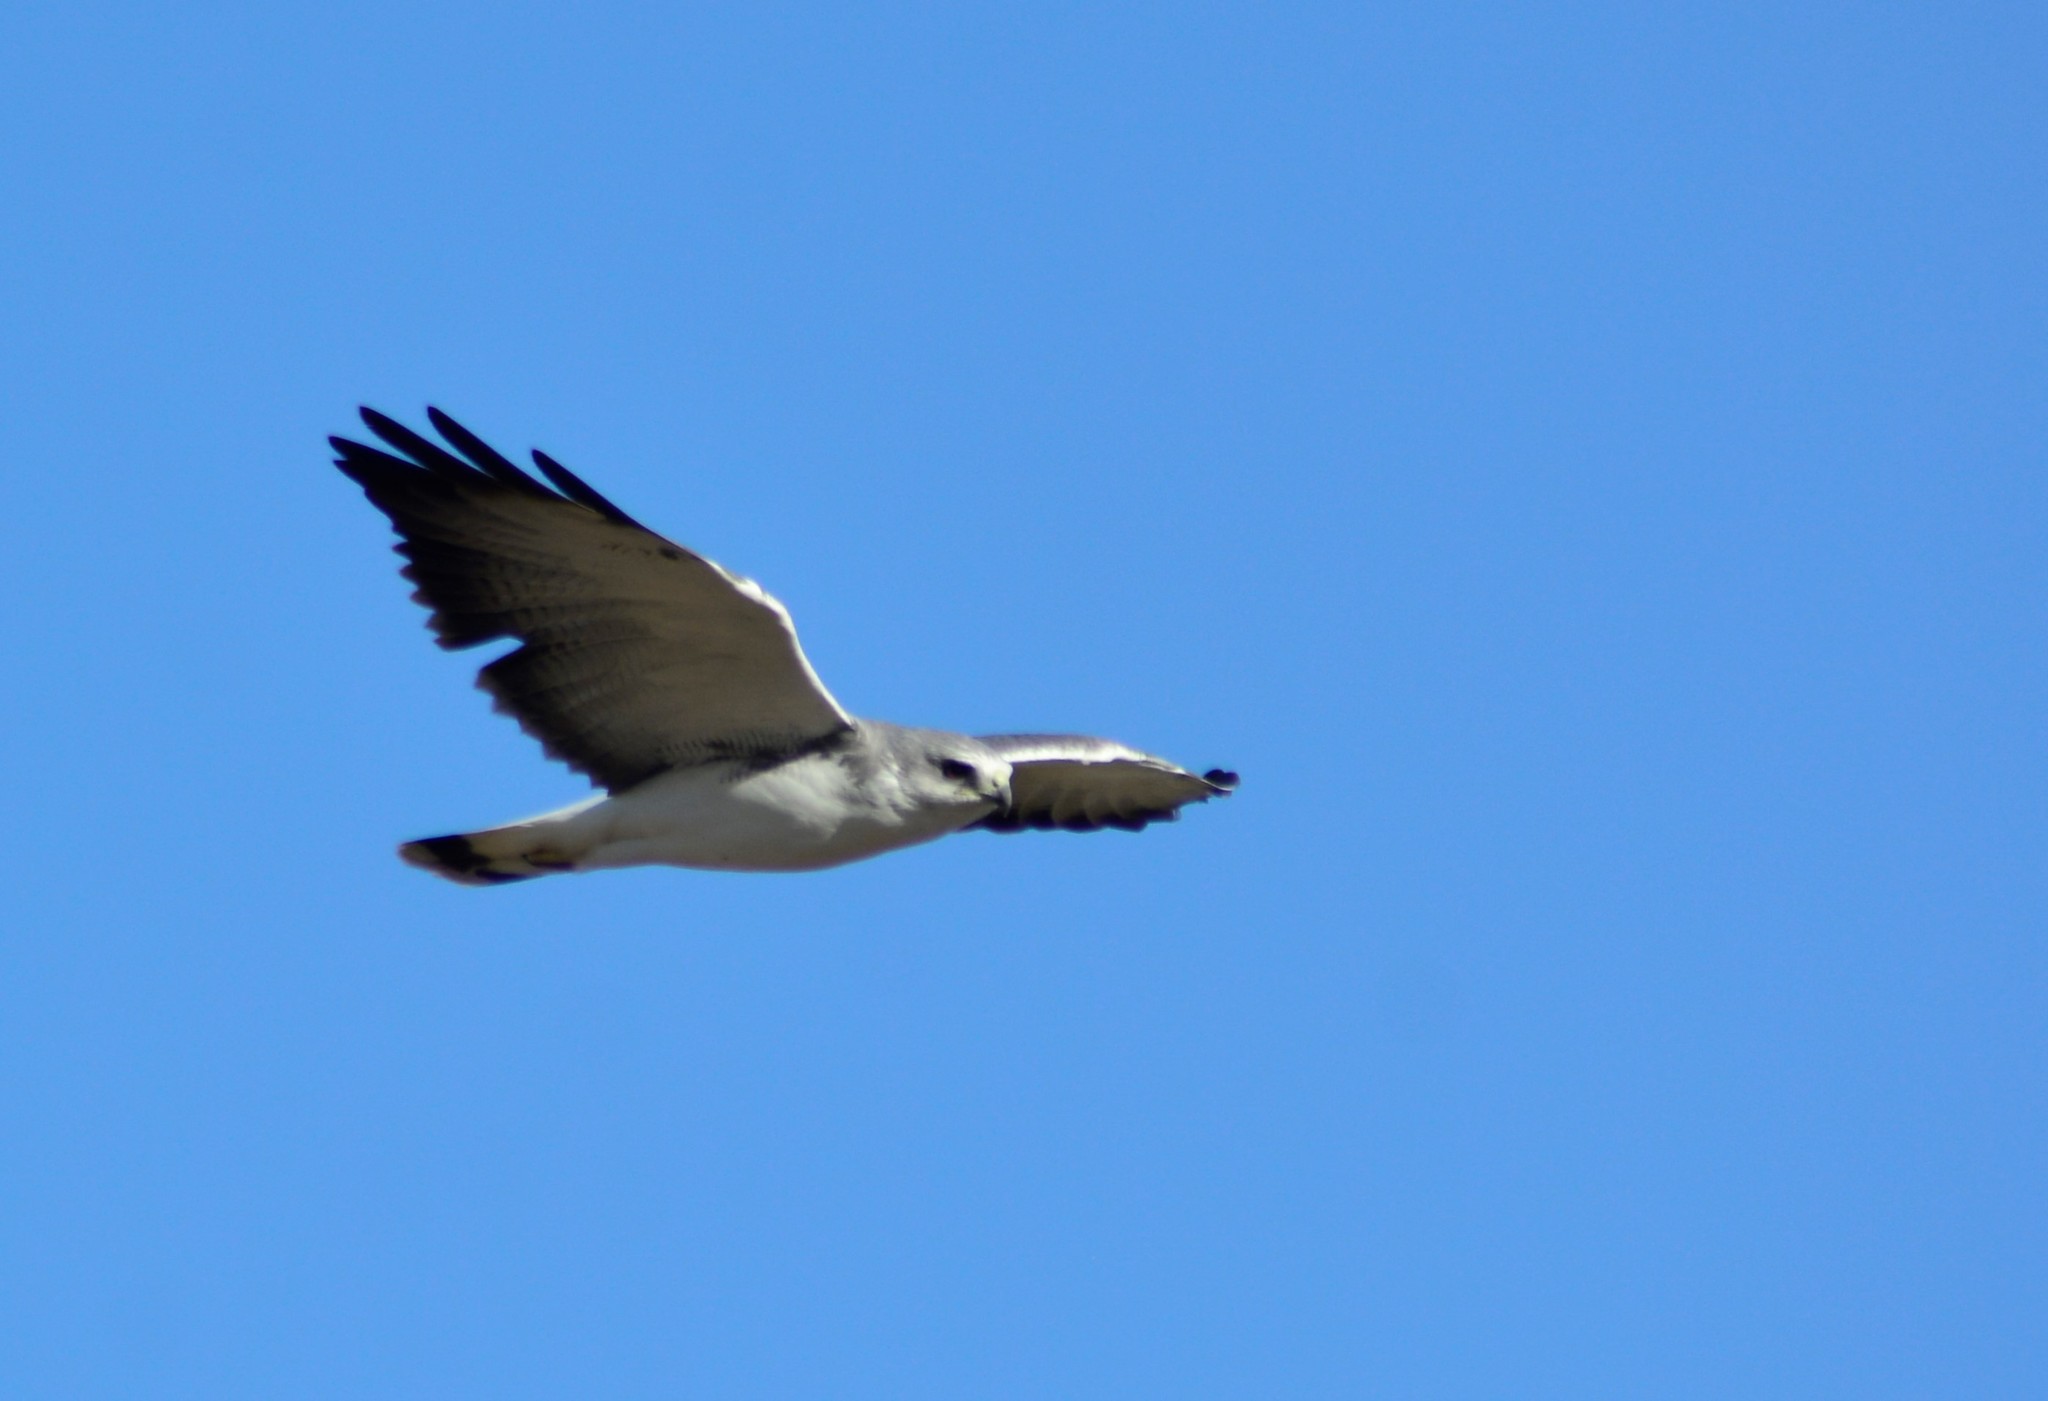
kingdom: Animalia
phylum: Chordata
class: Aves
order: Accipitriformes
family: Accipitridae
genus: Buteo
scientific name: Buteo polyosoma
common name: Variable hawk
